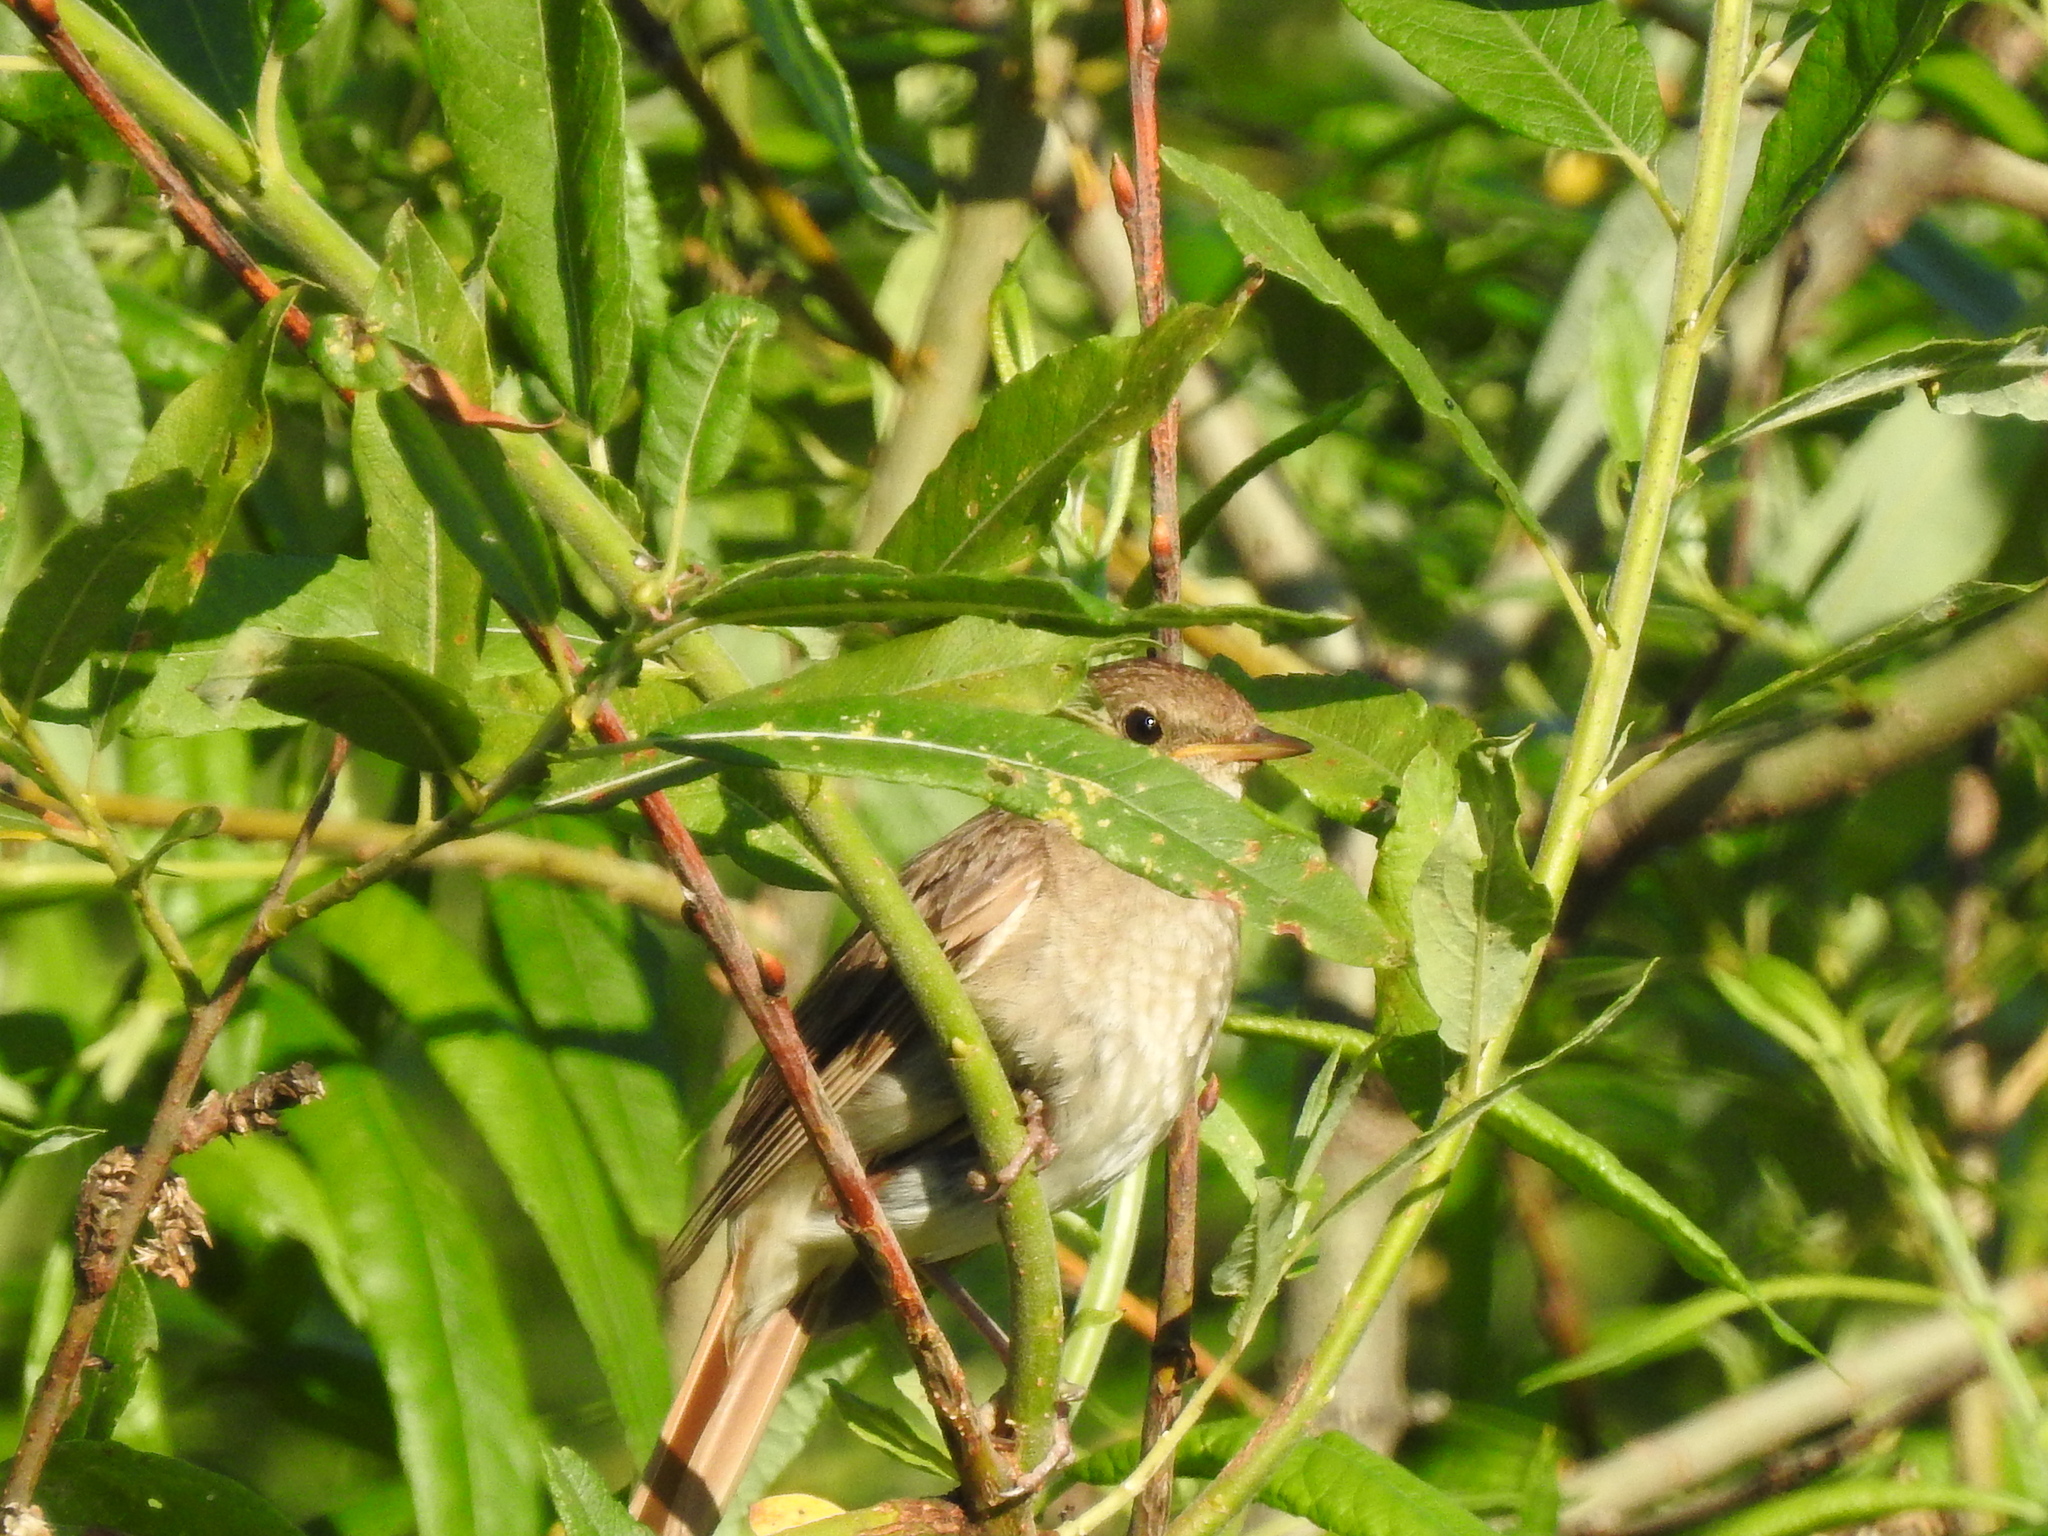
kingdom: Animalia
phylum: Chordata
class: Aves
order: Passeriformes
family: Muscicapidae
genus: Luscinia
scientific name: Luscinia luscinia
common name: Thrush nightingale
